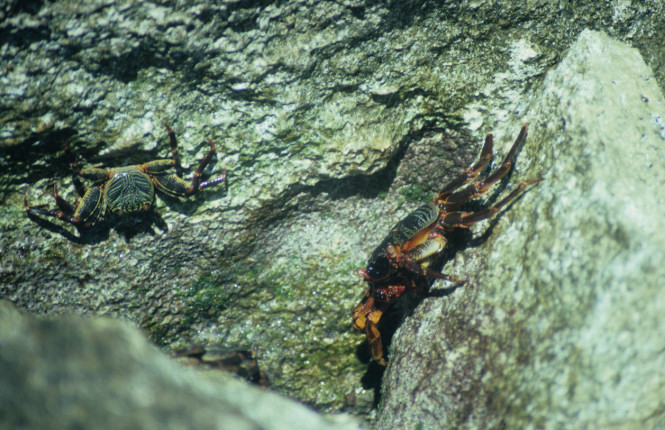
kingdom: Animalia
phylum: Arthropoda
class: Malacostraca
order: Decapoda
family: Grapsidae
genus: Grapsus
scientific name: Grapsus tenuicrustatus
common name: Natal lightfoot crab
